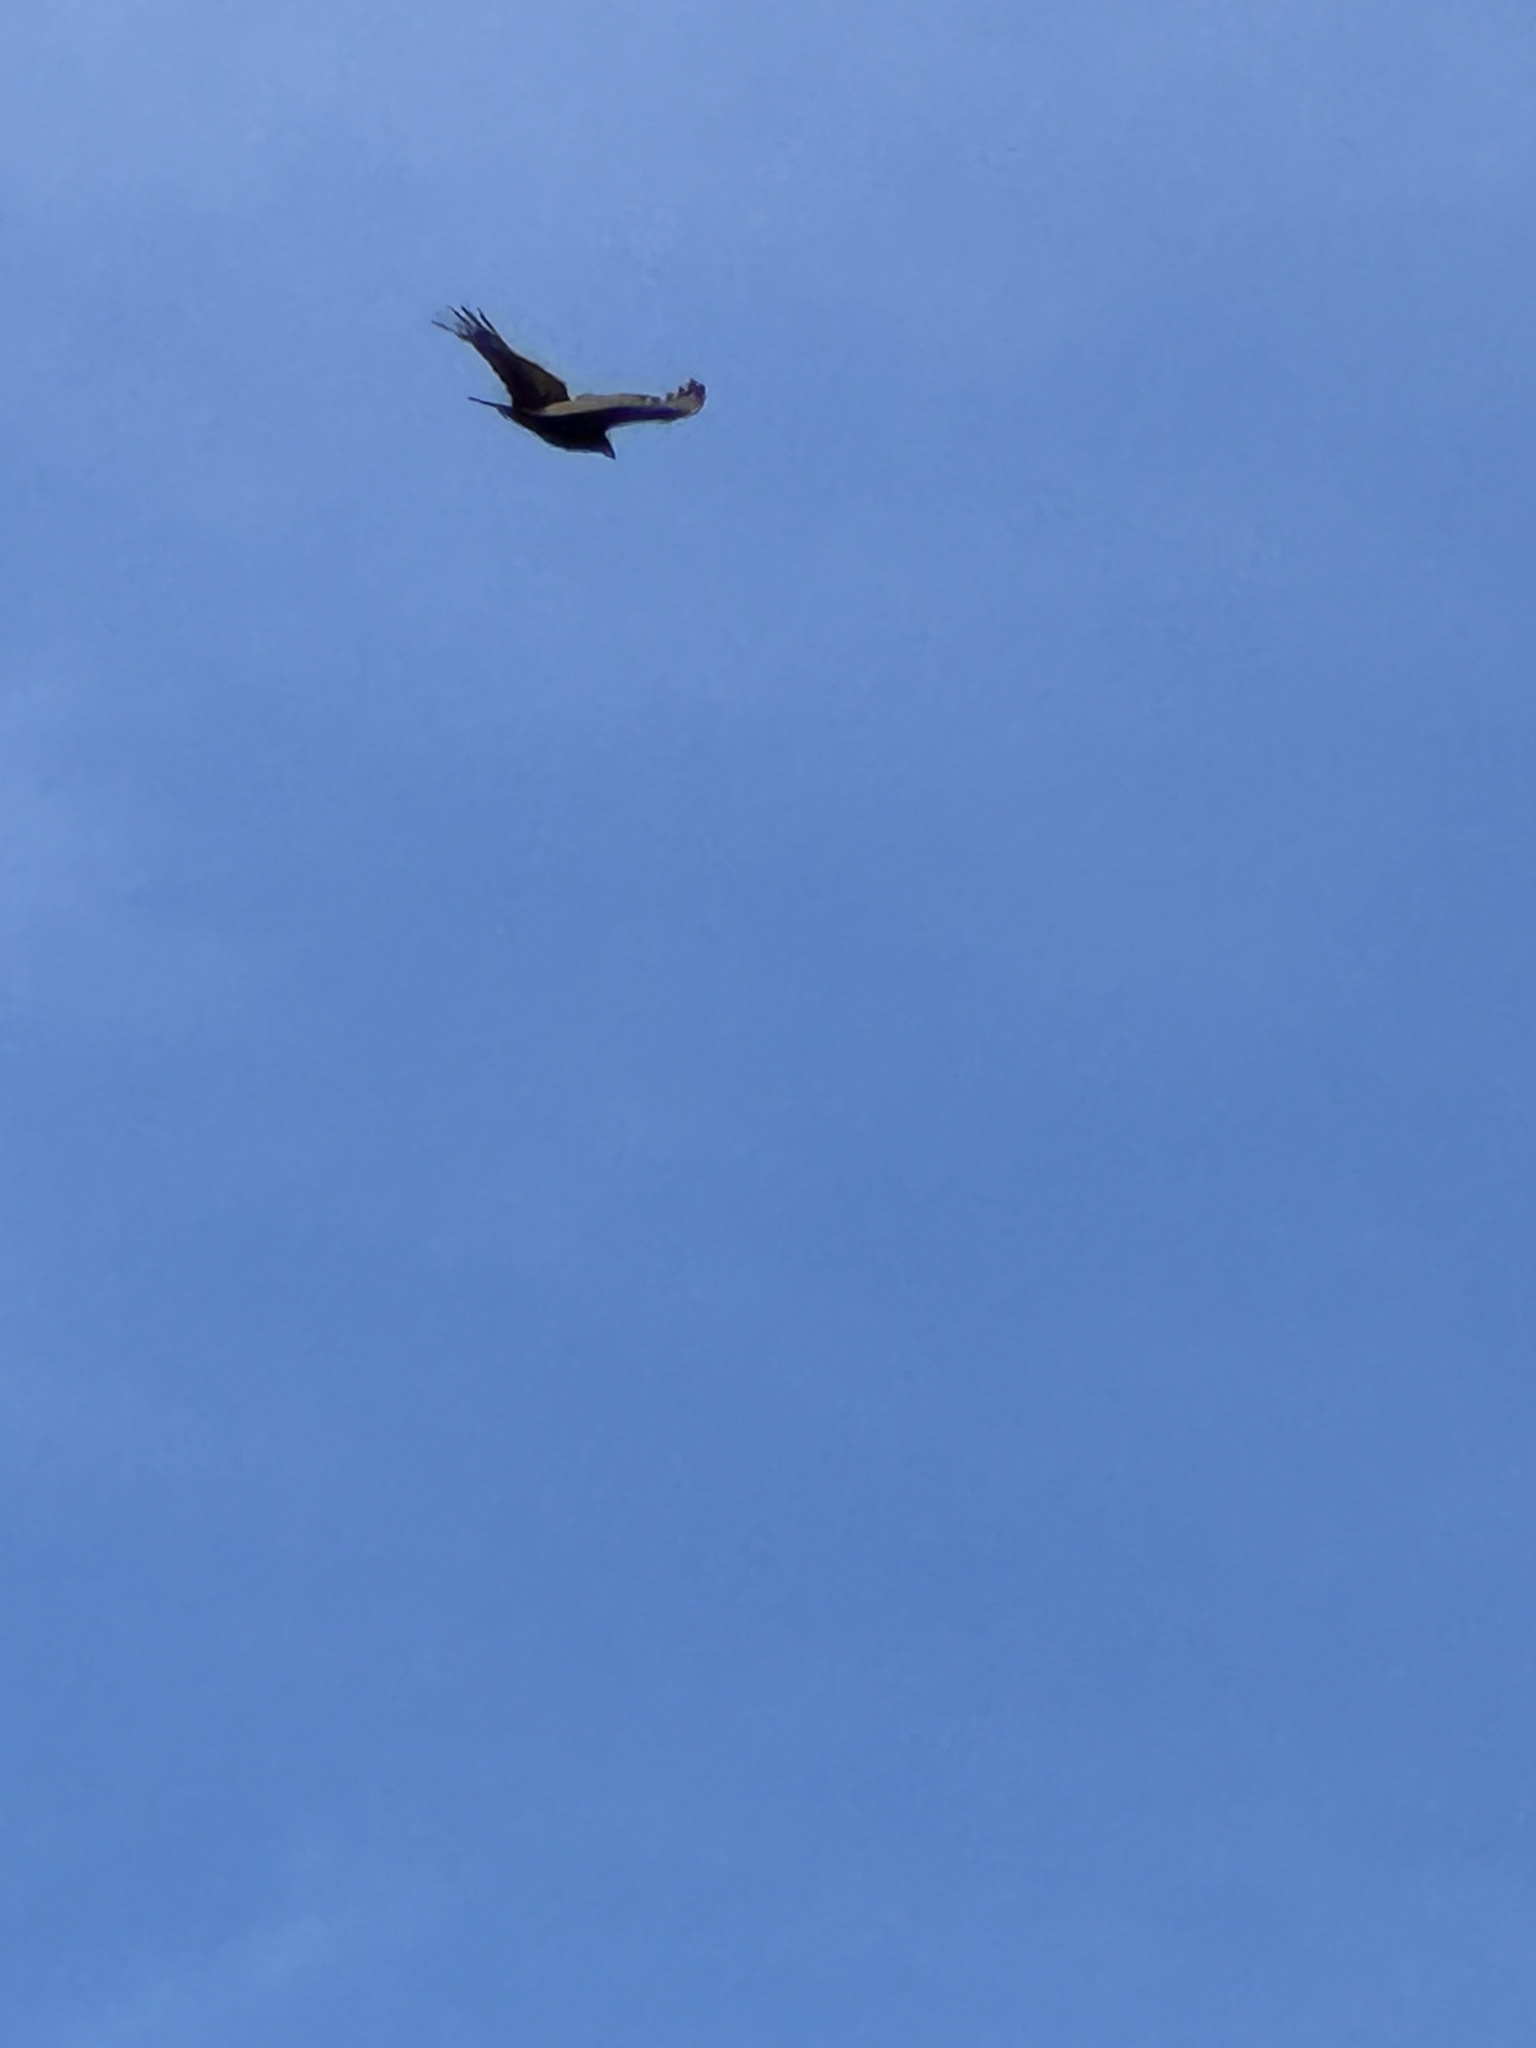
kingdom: Animalia
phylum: Chordata
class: Aves
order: Accipitriformes
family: Cathartidae
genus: Cathartes
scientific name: Cathartes aura
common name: Turkey vulture
